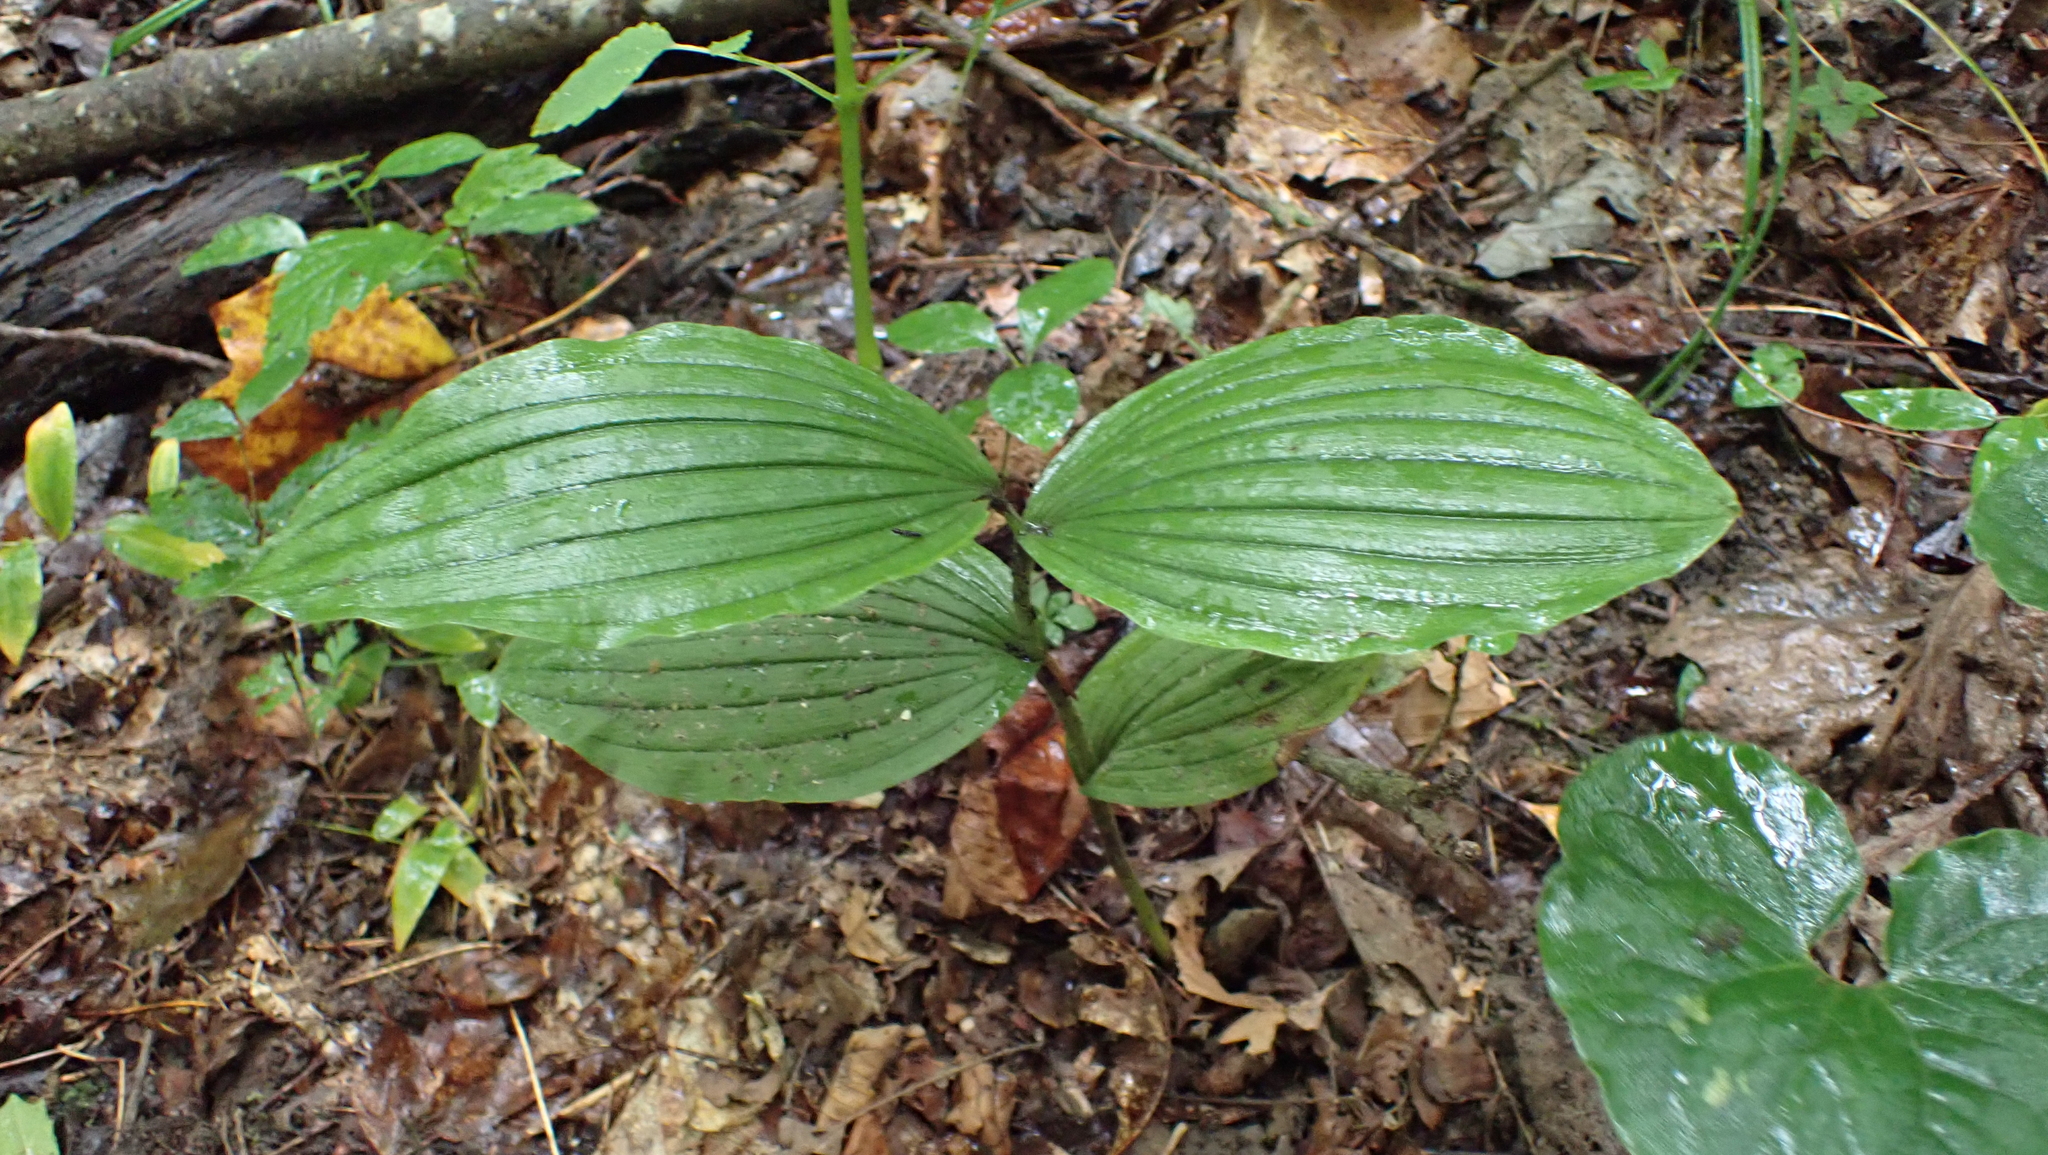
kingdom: Plantae
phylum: Tracheophyta
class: Liliopsida
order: Asparagales
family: Orchidaceae
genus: Cypripedium
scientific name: Cypripedium parviflorum
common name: American yellow lady's-slipper
